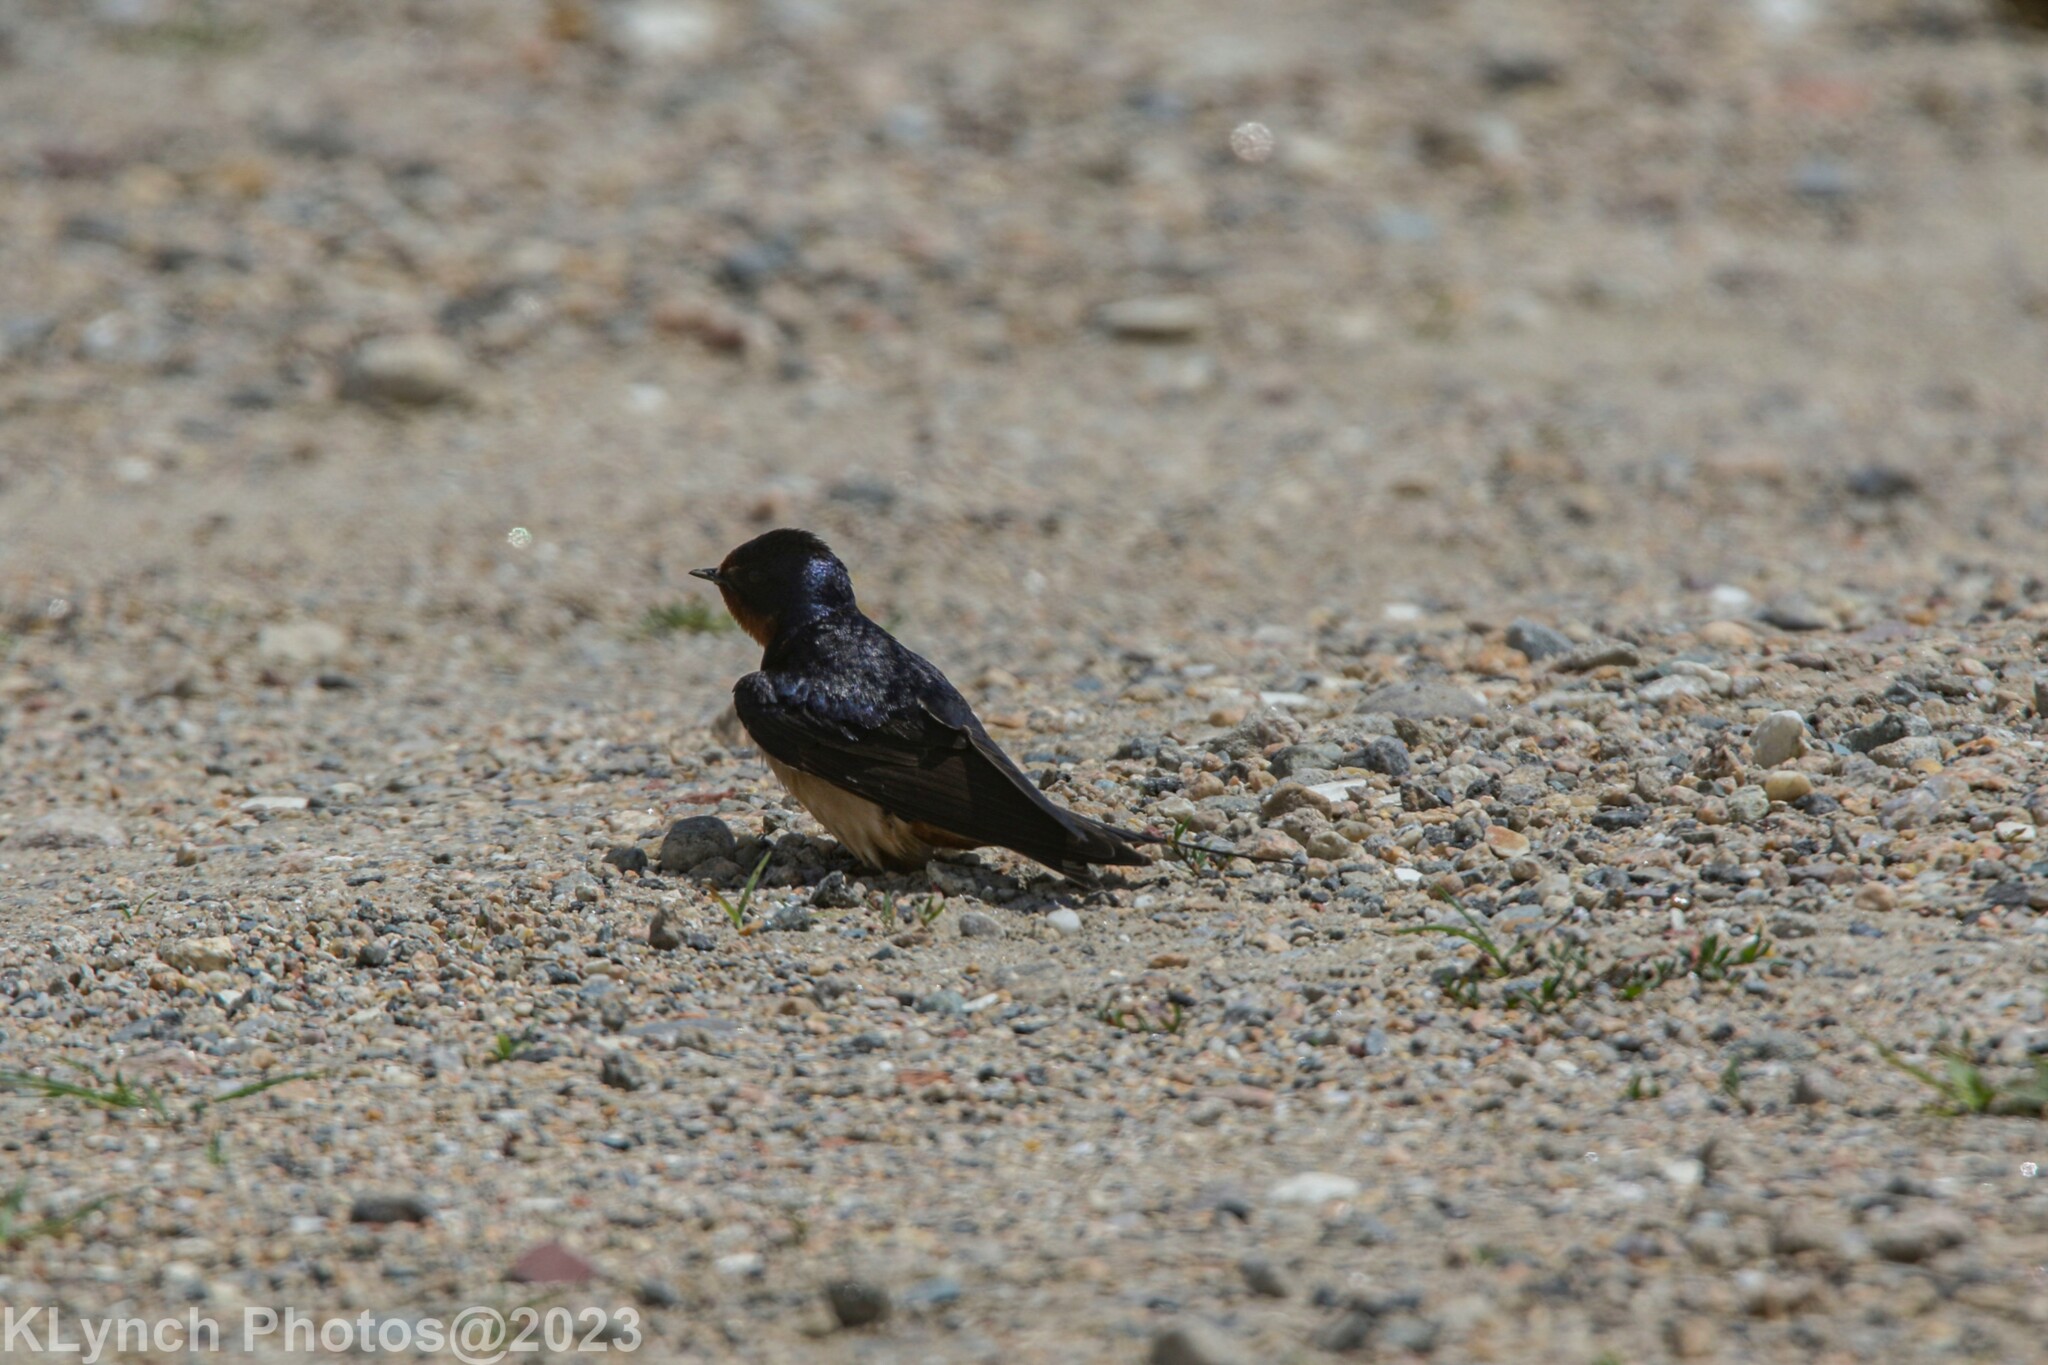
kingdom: Animalia
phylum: Chordata
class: Aves
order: Passeriformes
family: Hirundinidae
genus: Hirundo
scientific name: Hirundo rustica
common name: Barn swallow
